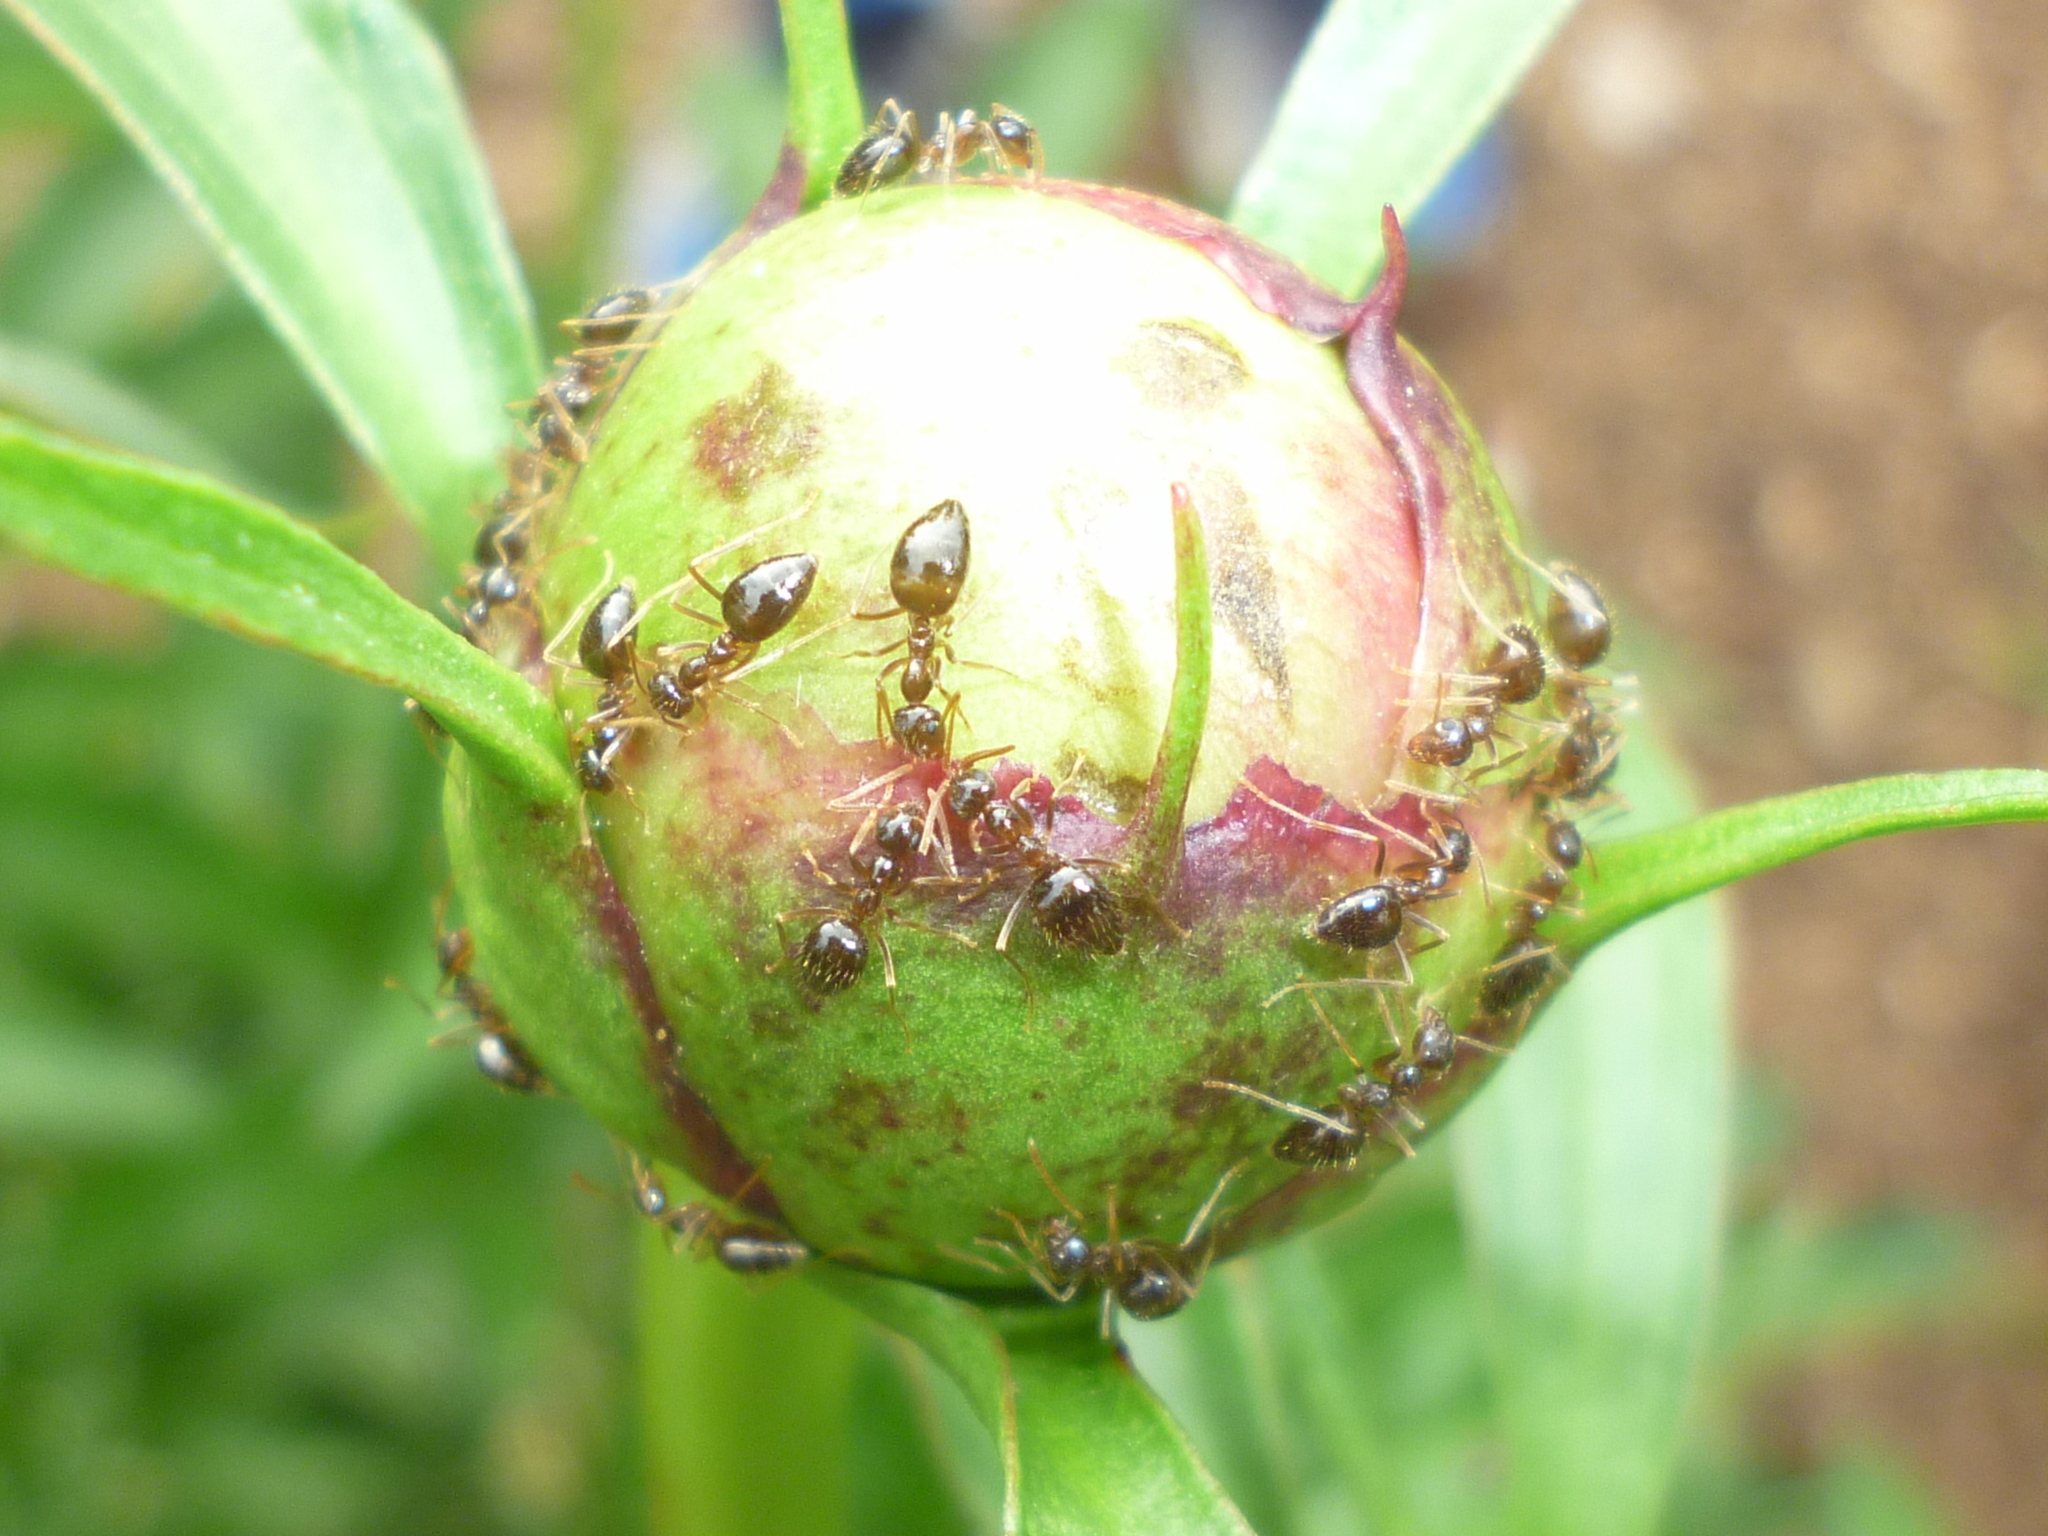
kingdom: Animalia
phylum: Arthropoda
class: Insecta
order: Hymenoptera
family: Formicidae
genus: Prenolepis
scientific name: Prenolepis imparis
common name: Small honey ant
